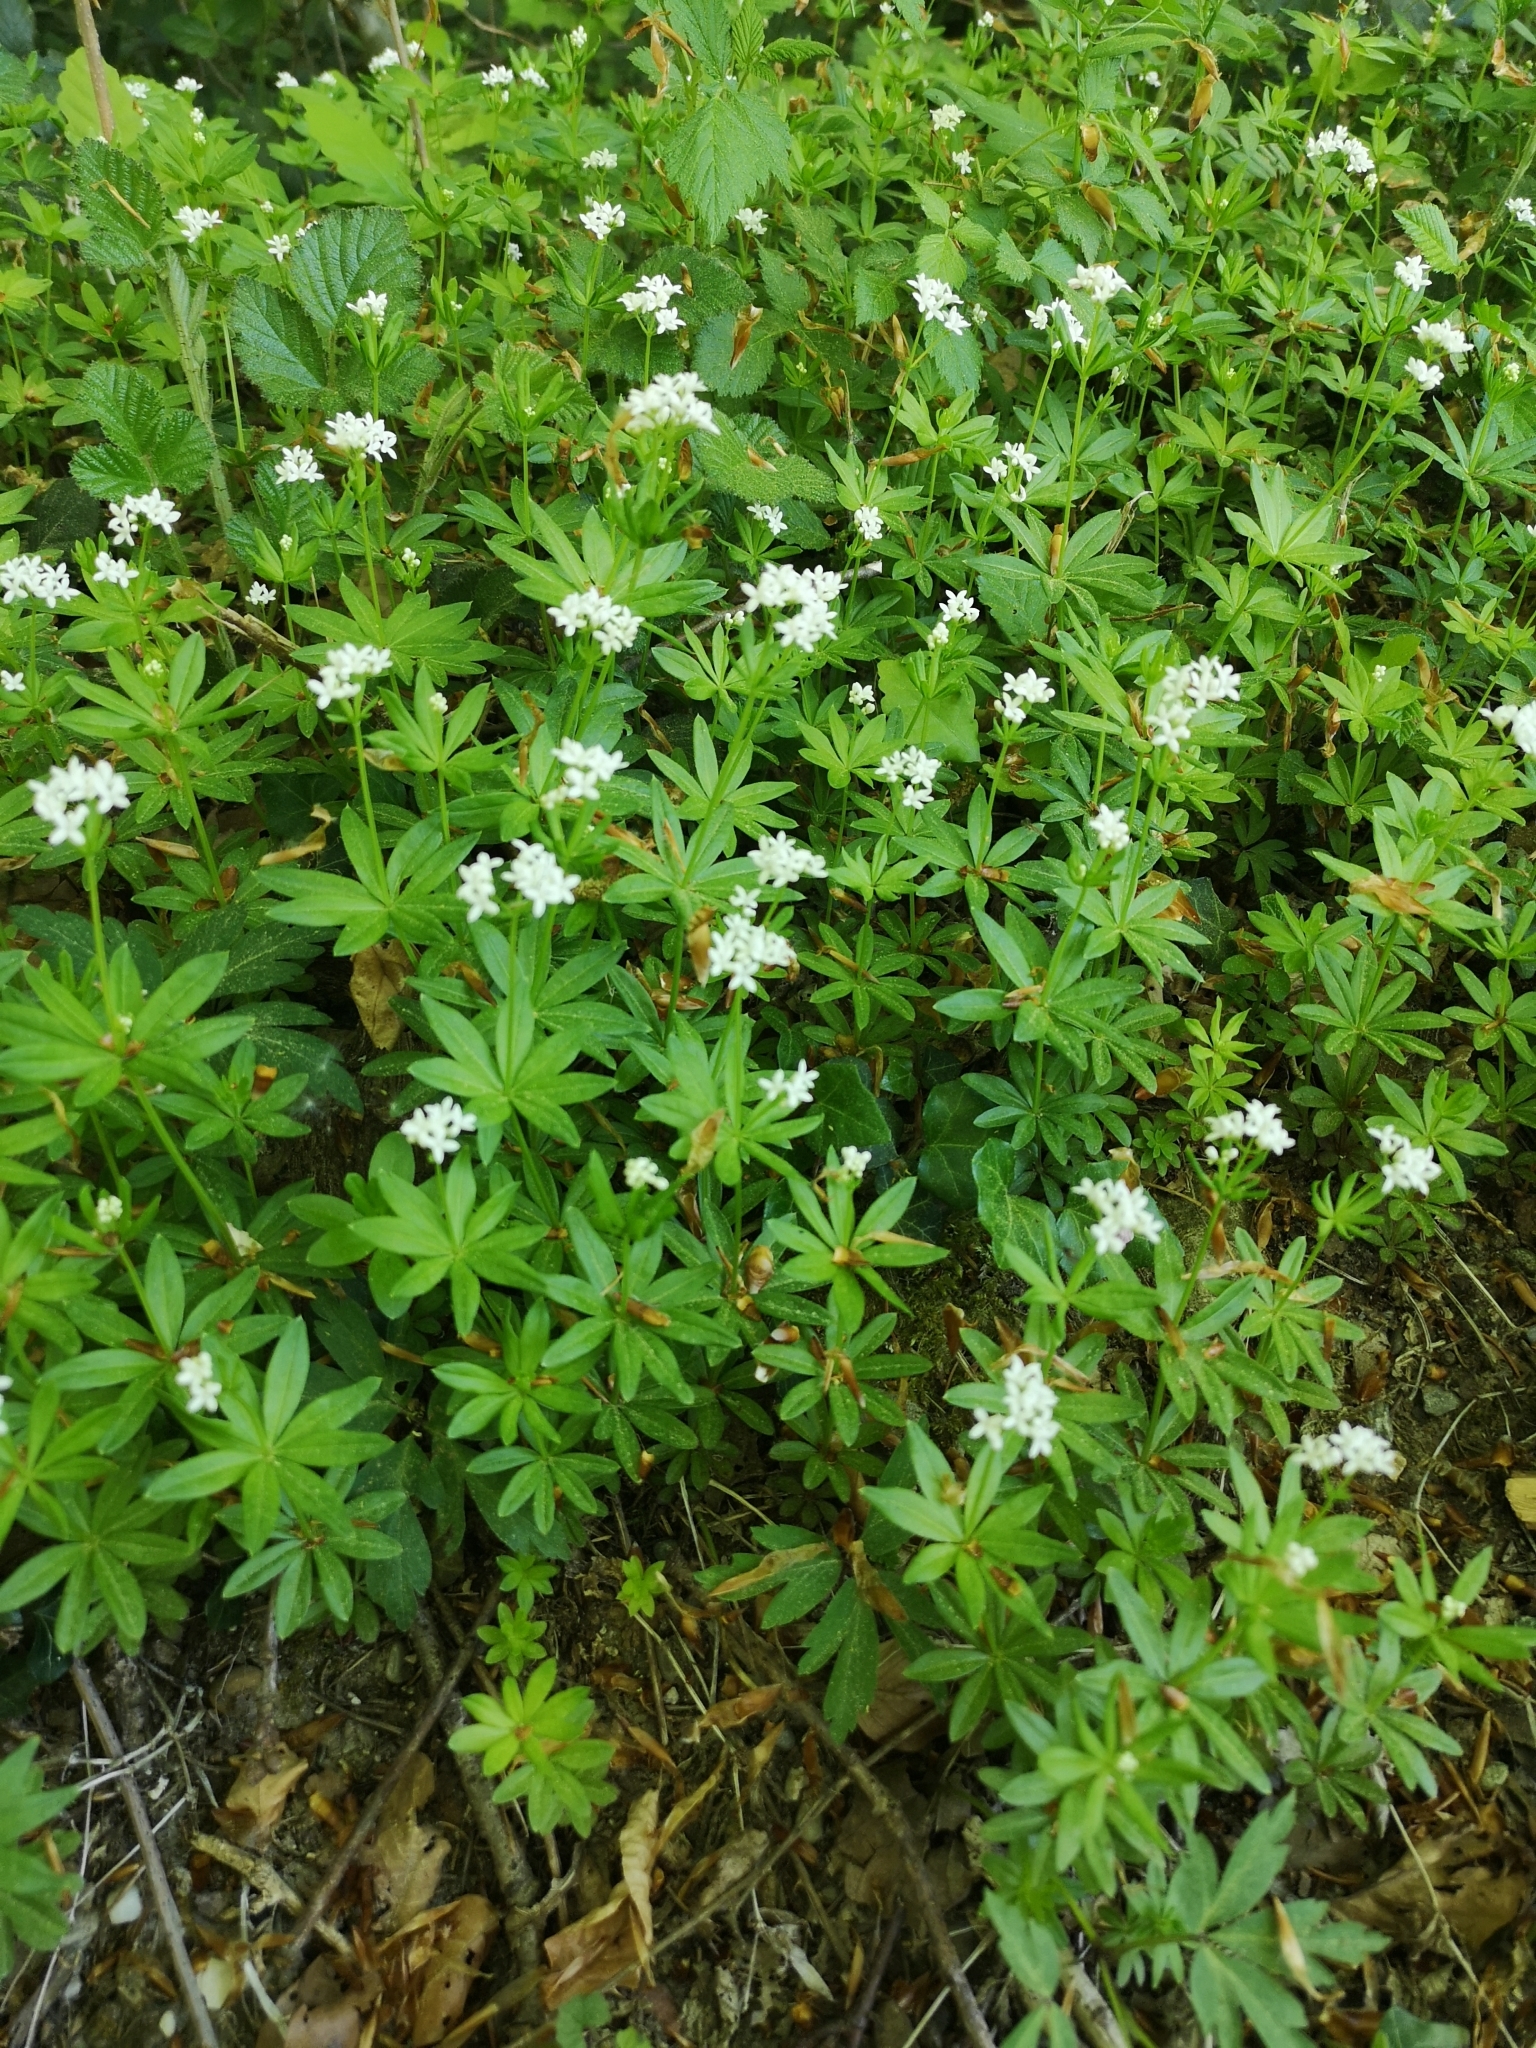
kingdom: Plantae
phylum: Tracheophyta
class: Magnoliopsida
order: Gentianales
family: Rubiaceae
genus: Galium
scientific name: Galium odoratum
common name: Sweet woodruff
